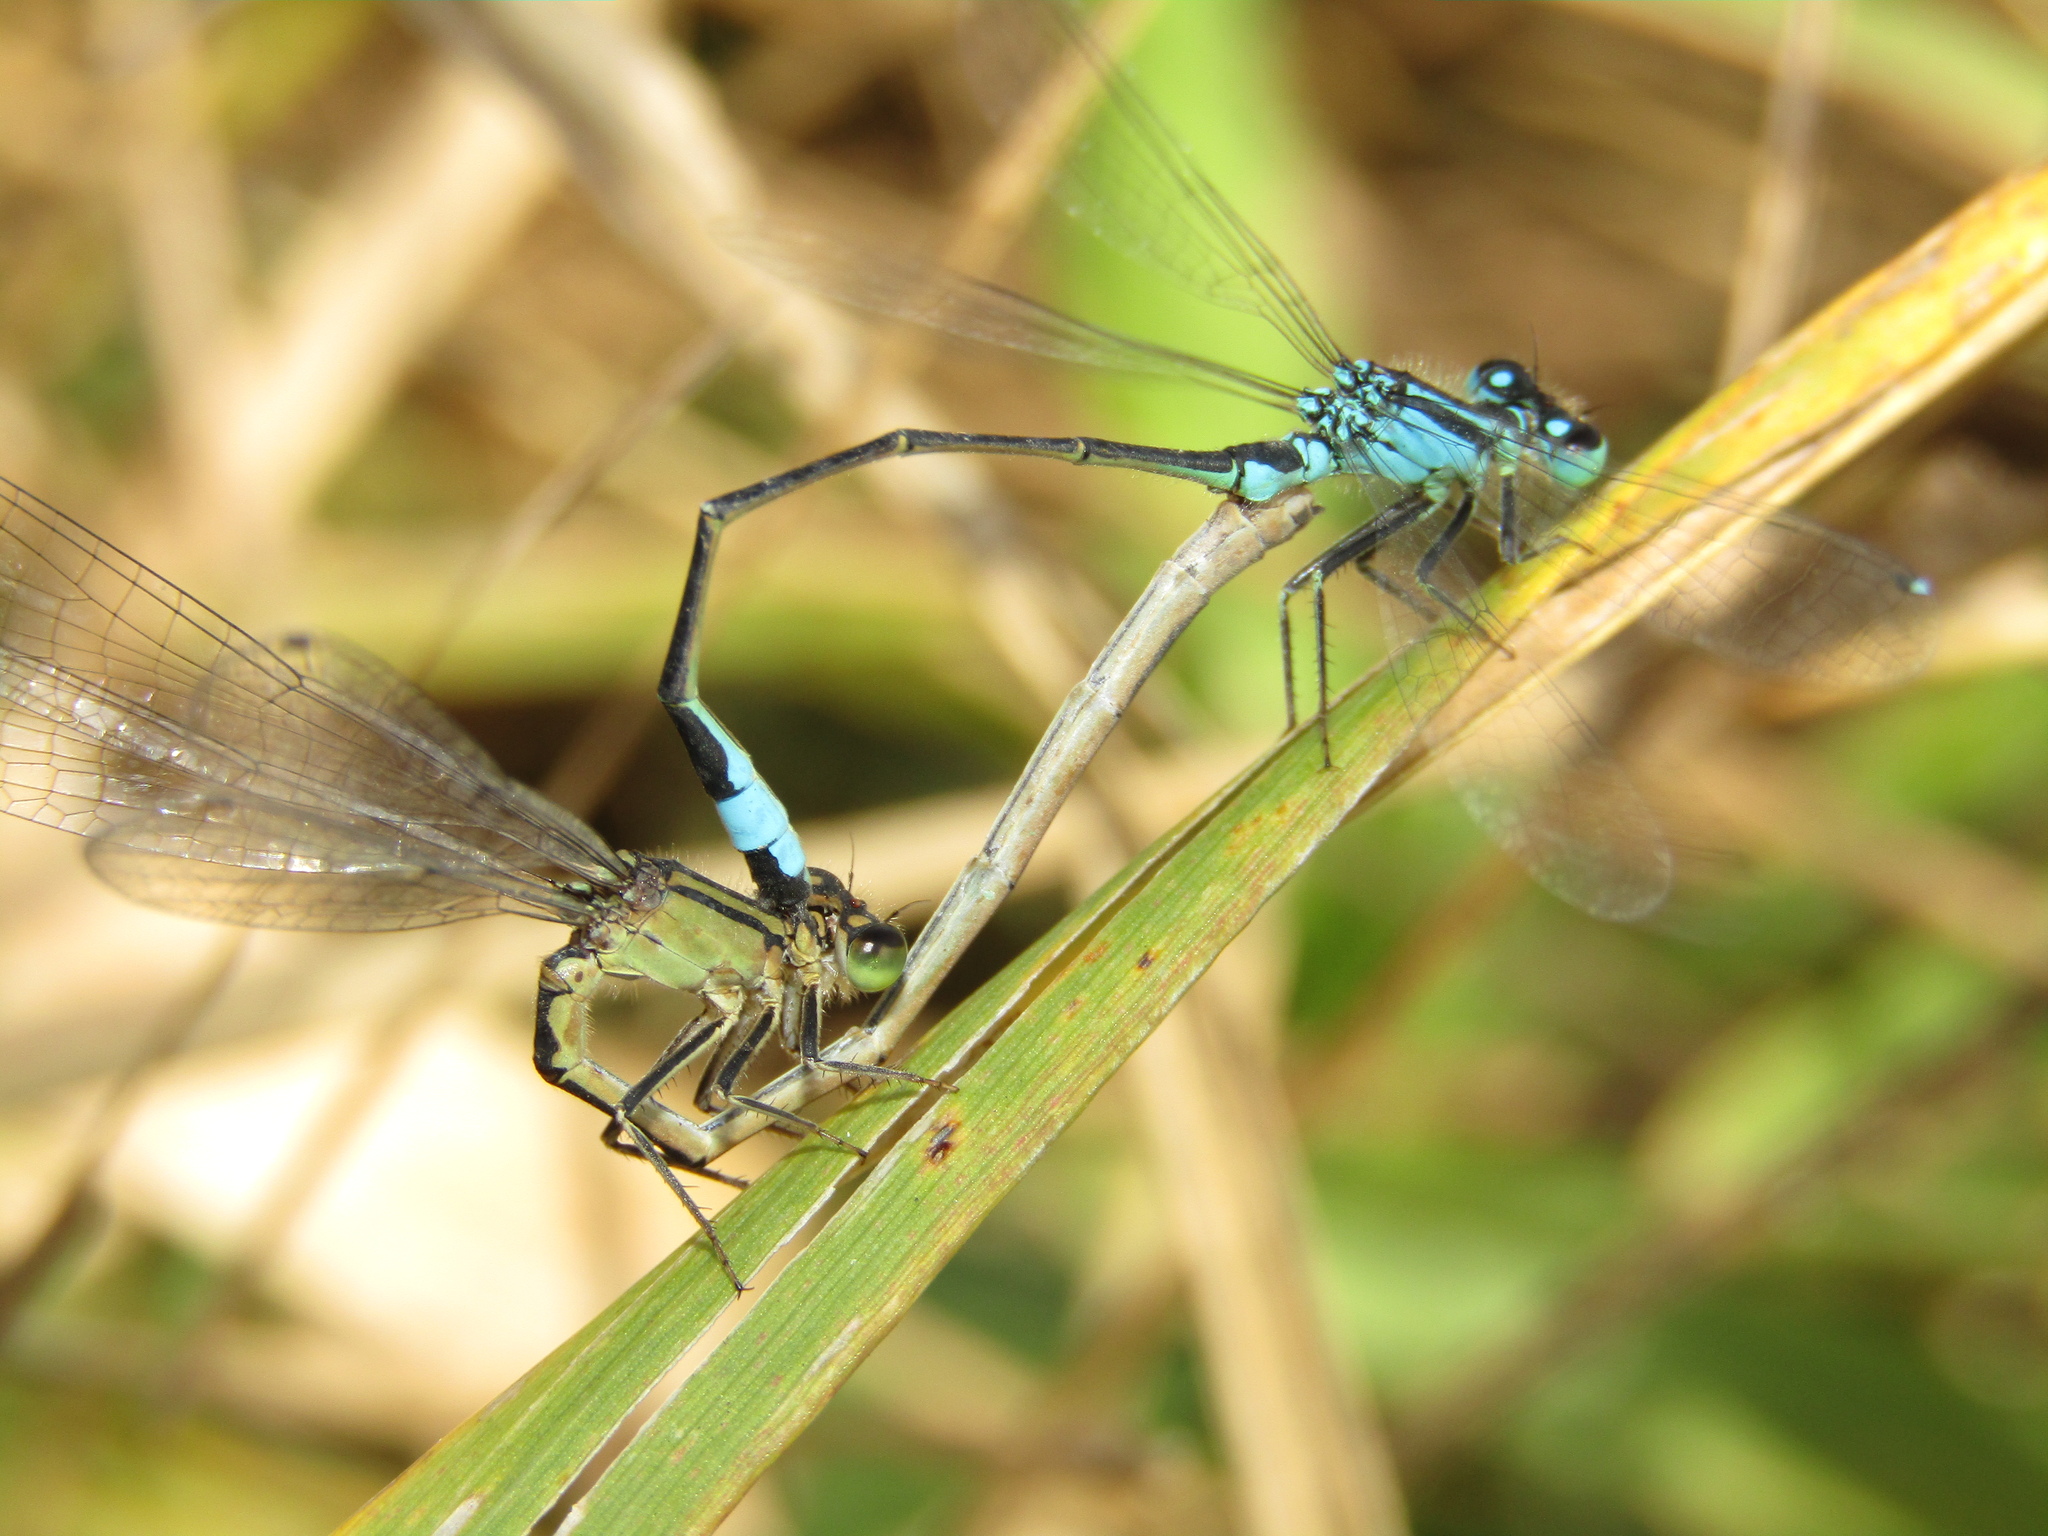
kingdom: Animalia
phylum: Arthropoda
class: Insecta
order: Odonata
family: Coenagrionidae
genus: Ischnura
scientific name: Ischnura elegans
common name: Blue-tailed damselfly
